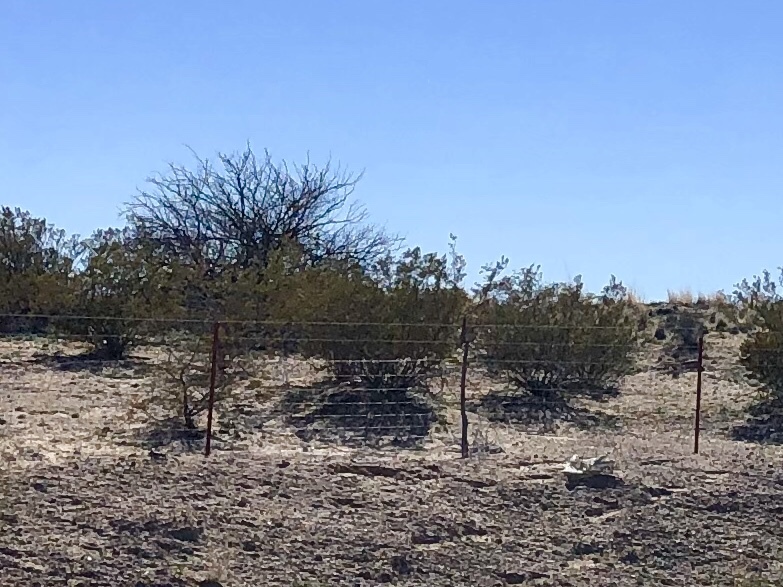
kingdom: Plantae
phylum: Tracheophyta
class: Magnoliopsida
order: Zygophyllales
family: Zygophyllaceae
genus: Larrea
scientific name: Larrea tridentata
